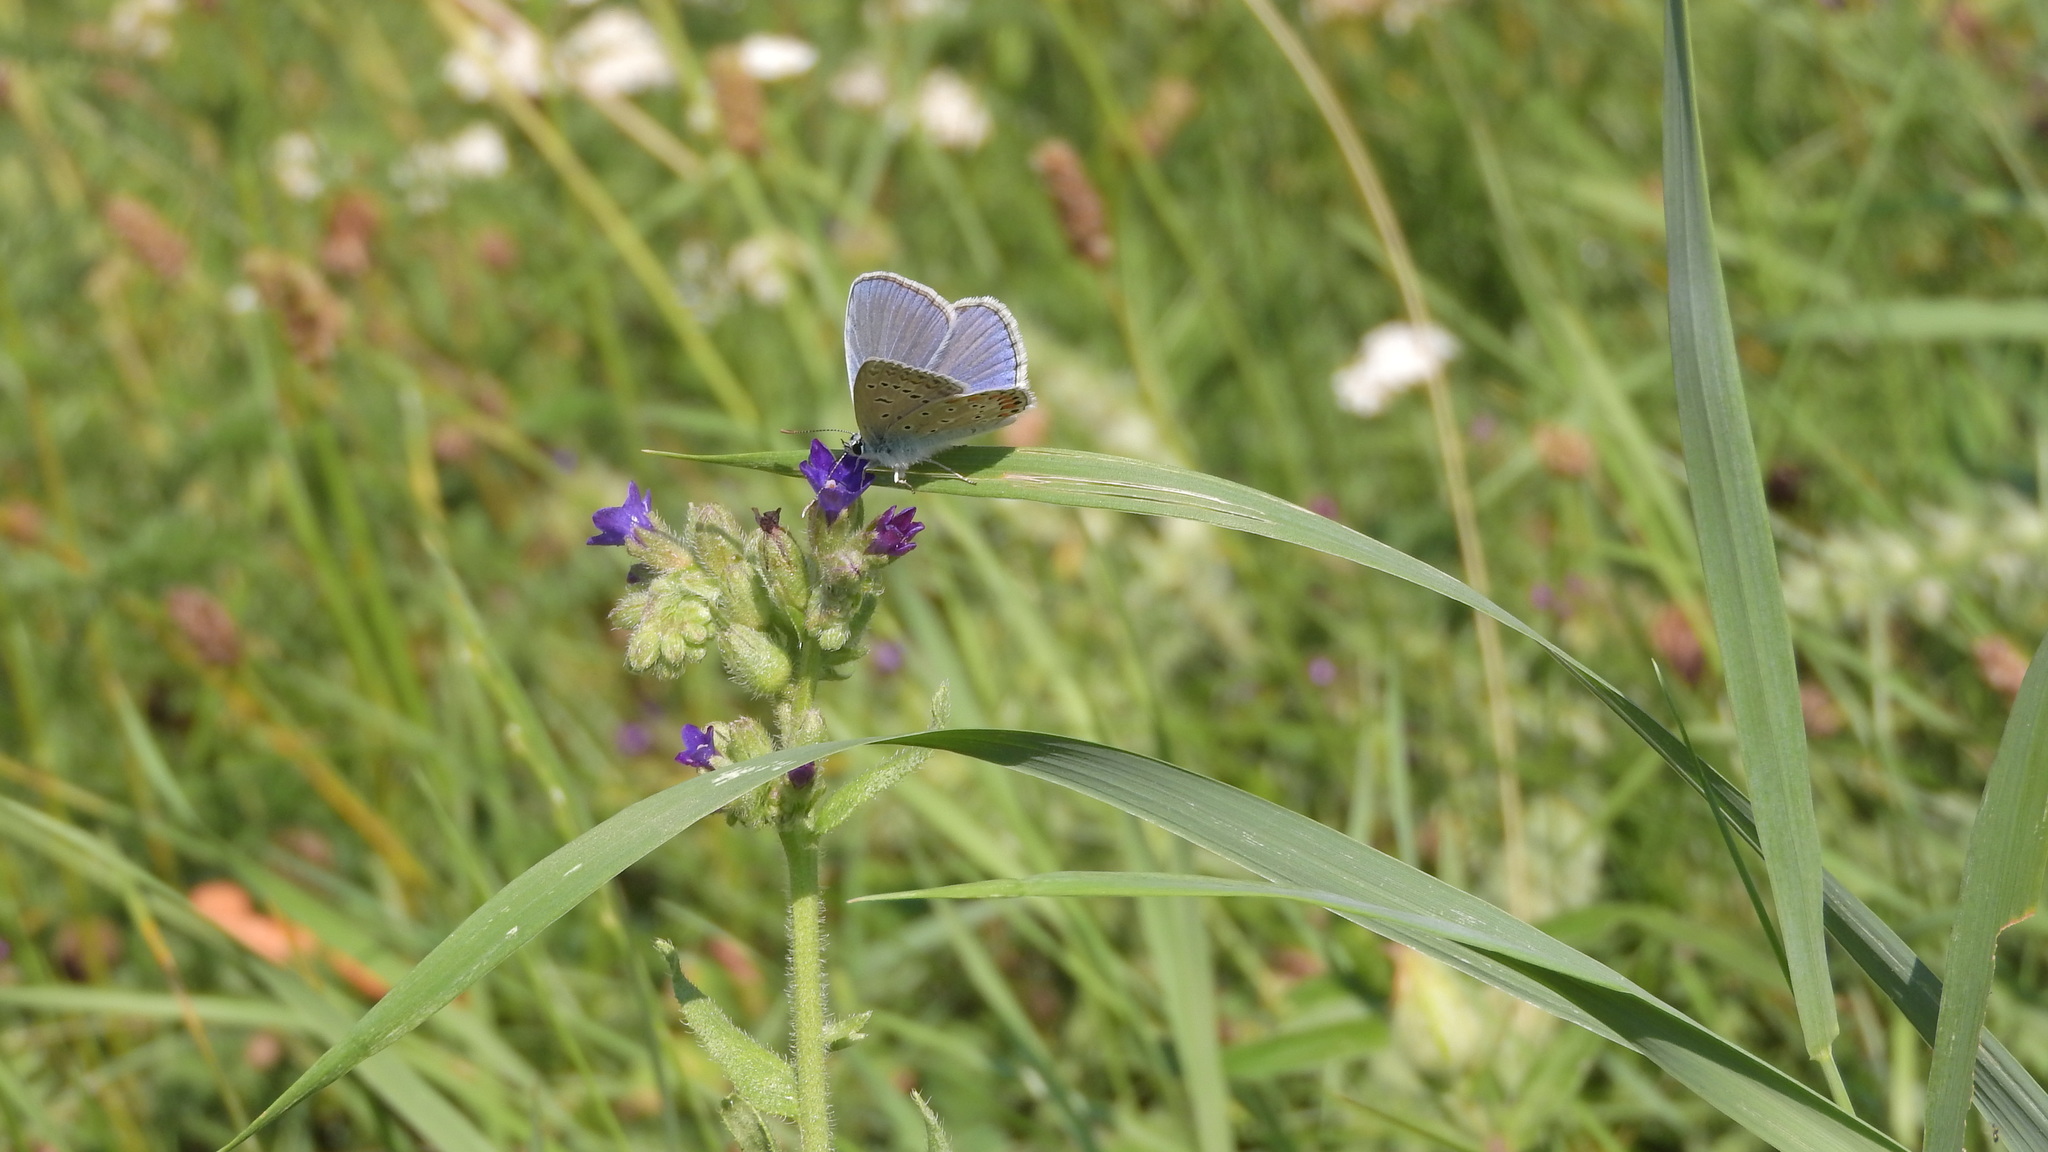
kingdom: Animalia
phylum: Arthropoda
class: Insecta
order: Lepidoptera
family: Lycaenidae
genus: Polyommatus
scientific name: Polyommatus icarus
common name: Common blue
